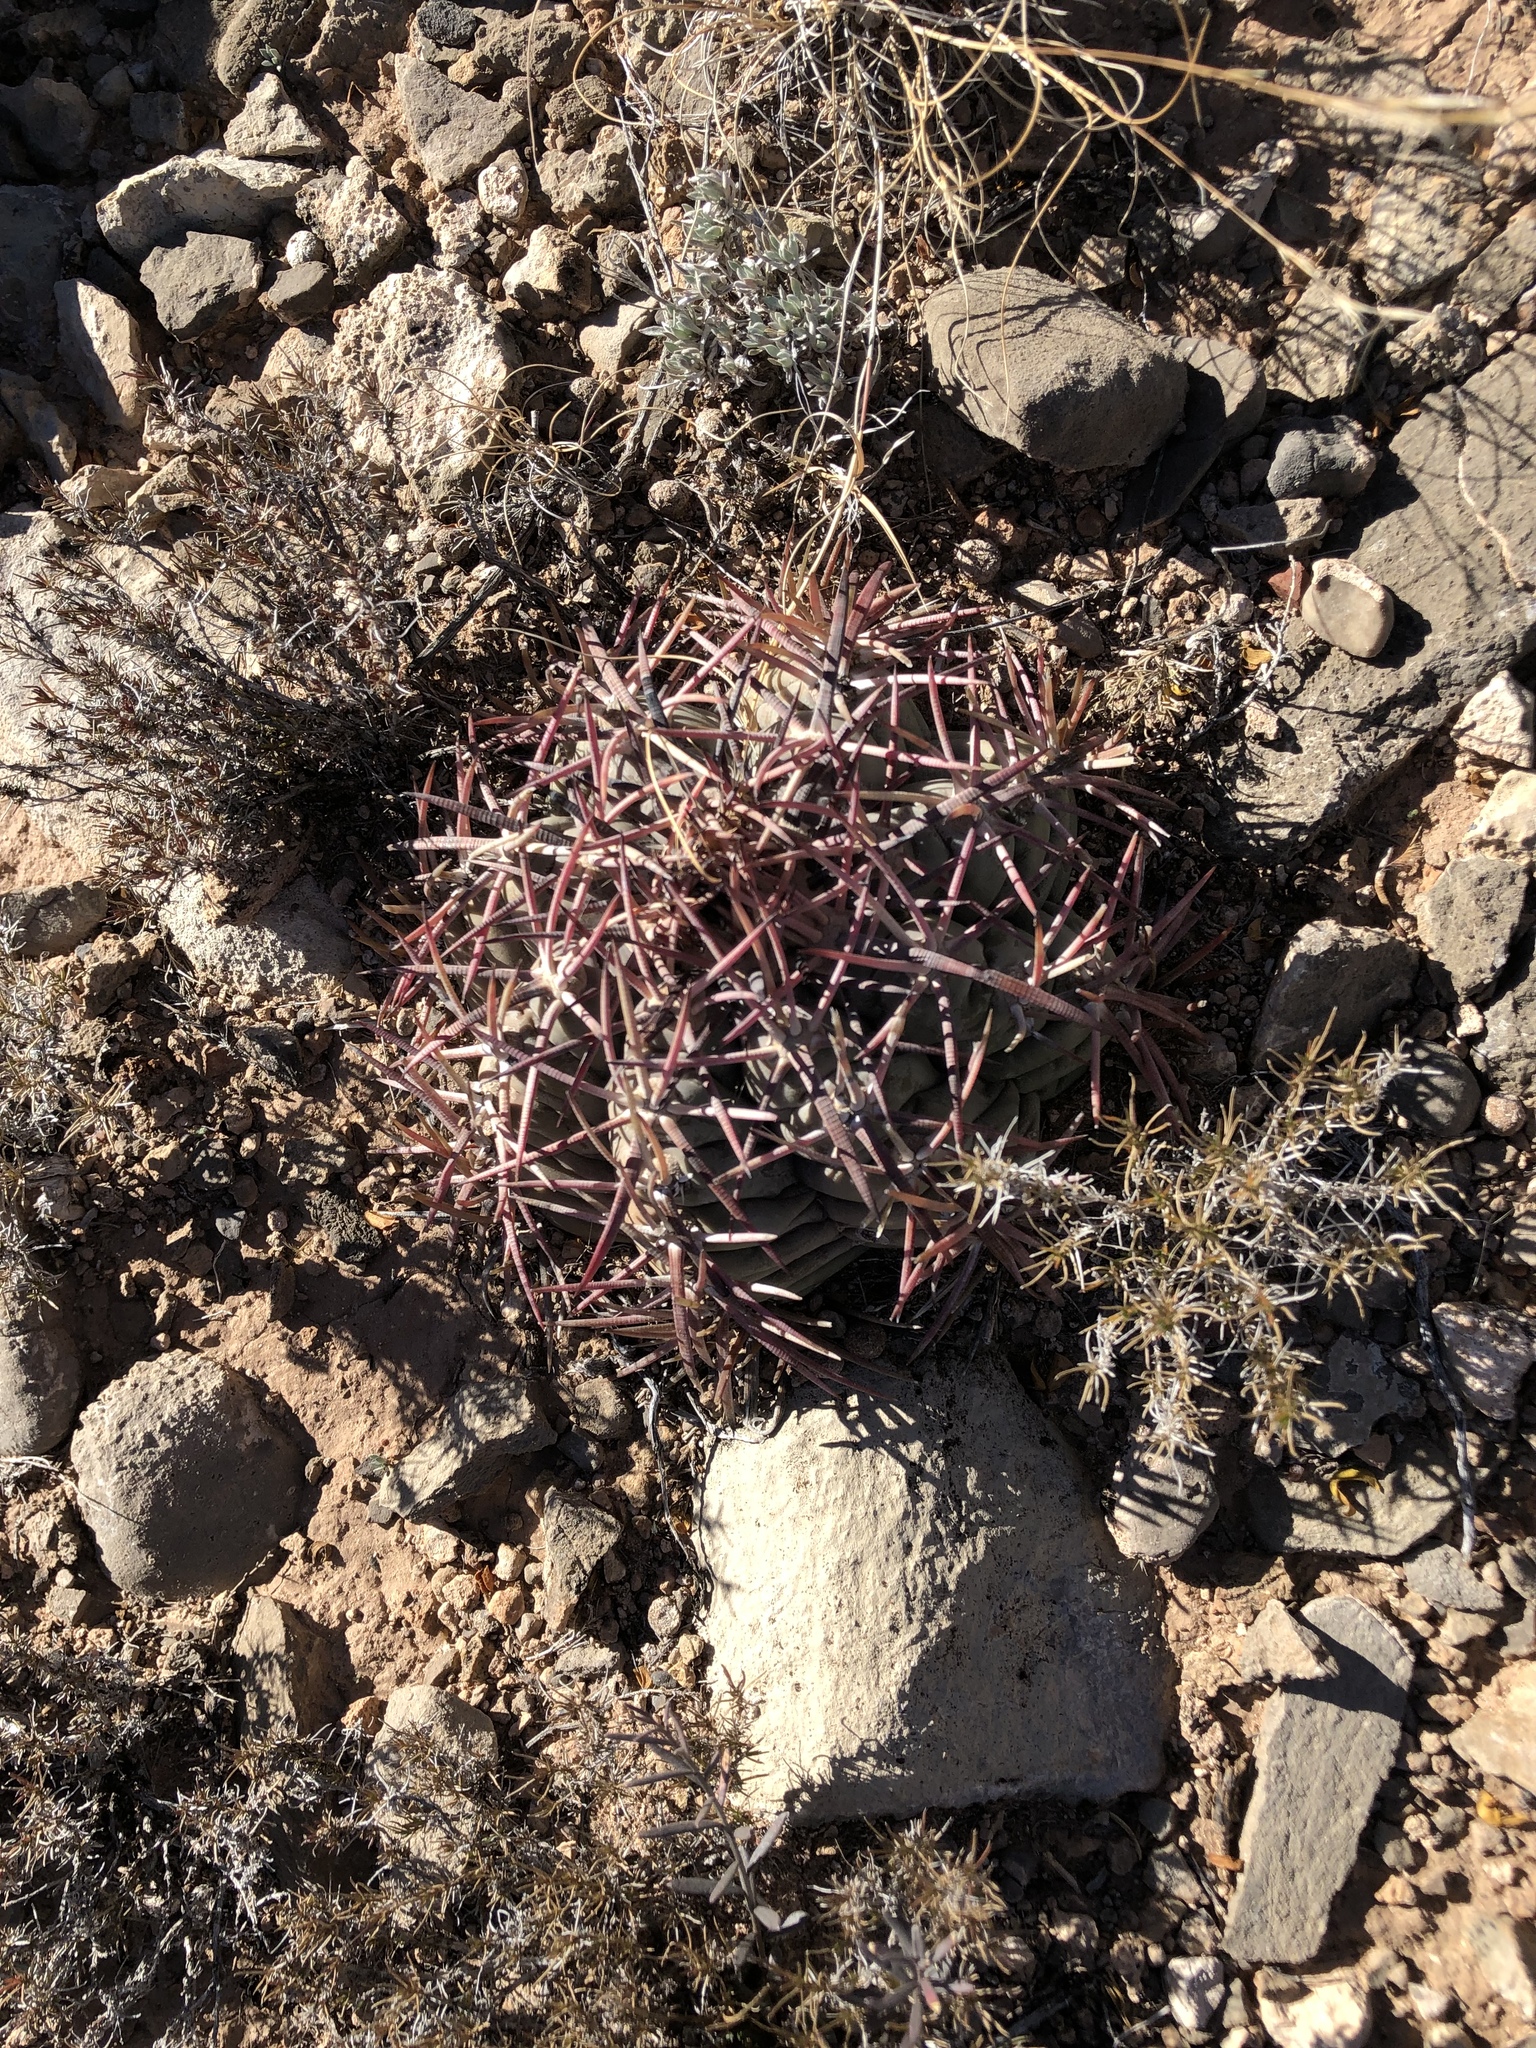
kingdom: Plantae
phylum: Tracheophyta
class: Magnoliopsida
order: Caryophyllales
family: Cactaceae
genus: Echinocactus
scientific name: Echinocactus horizonthalonius
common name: Devilshead
